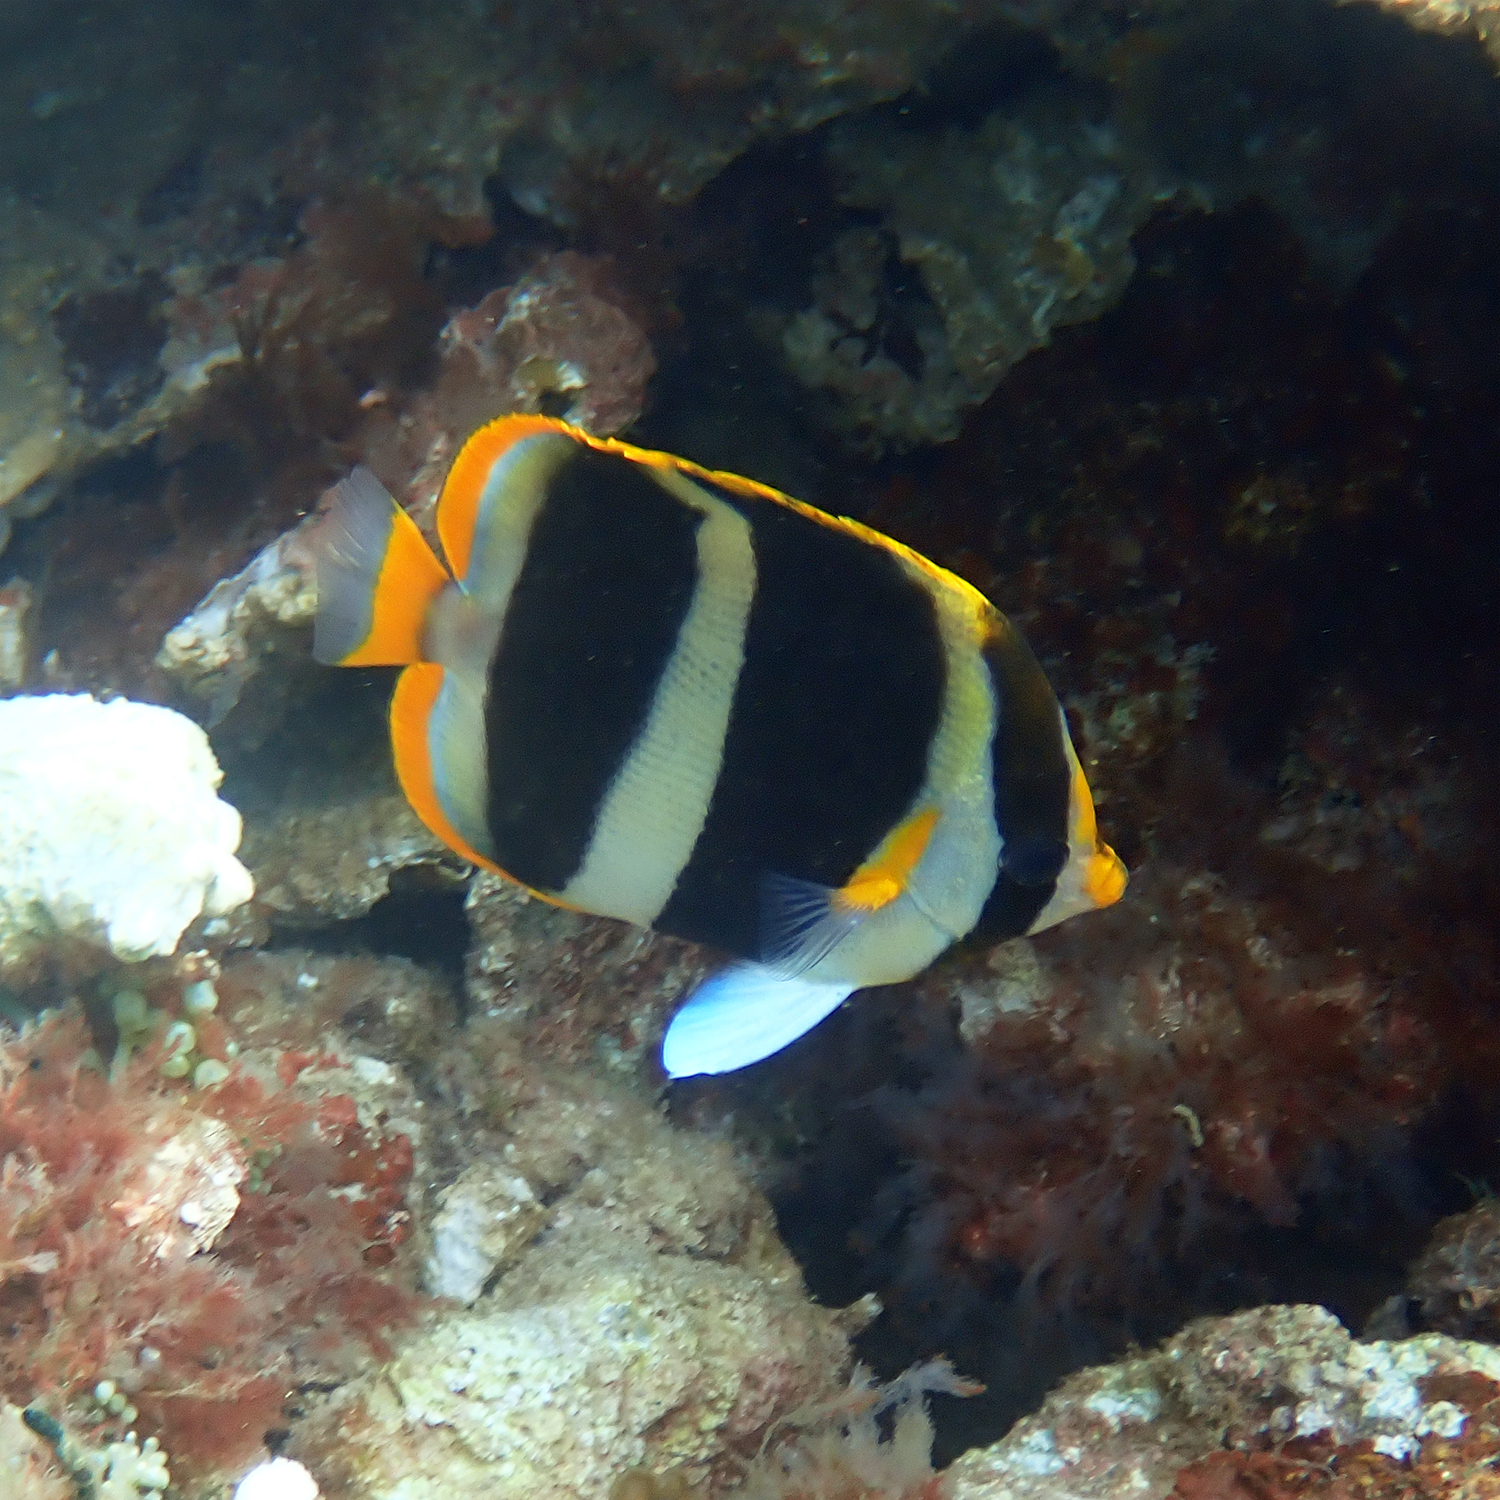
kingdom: Animalia
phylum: Chordata
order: Perciformes
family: Chaetodontidae
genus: Chaetodon
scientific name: Chaetodon tricinctus
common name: Three-striped butterflyfish
